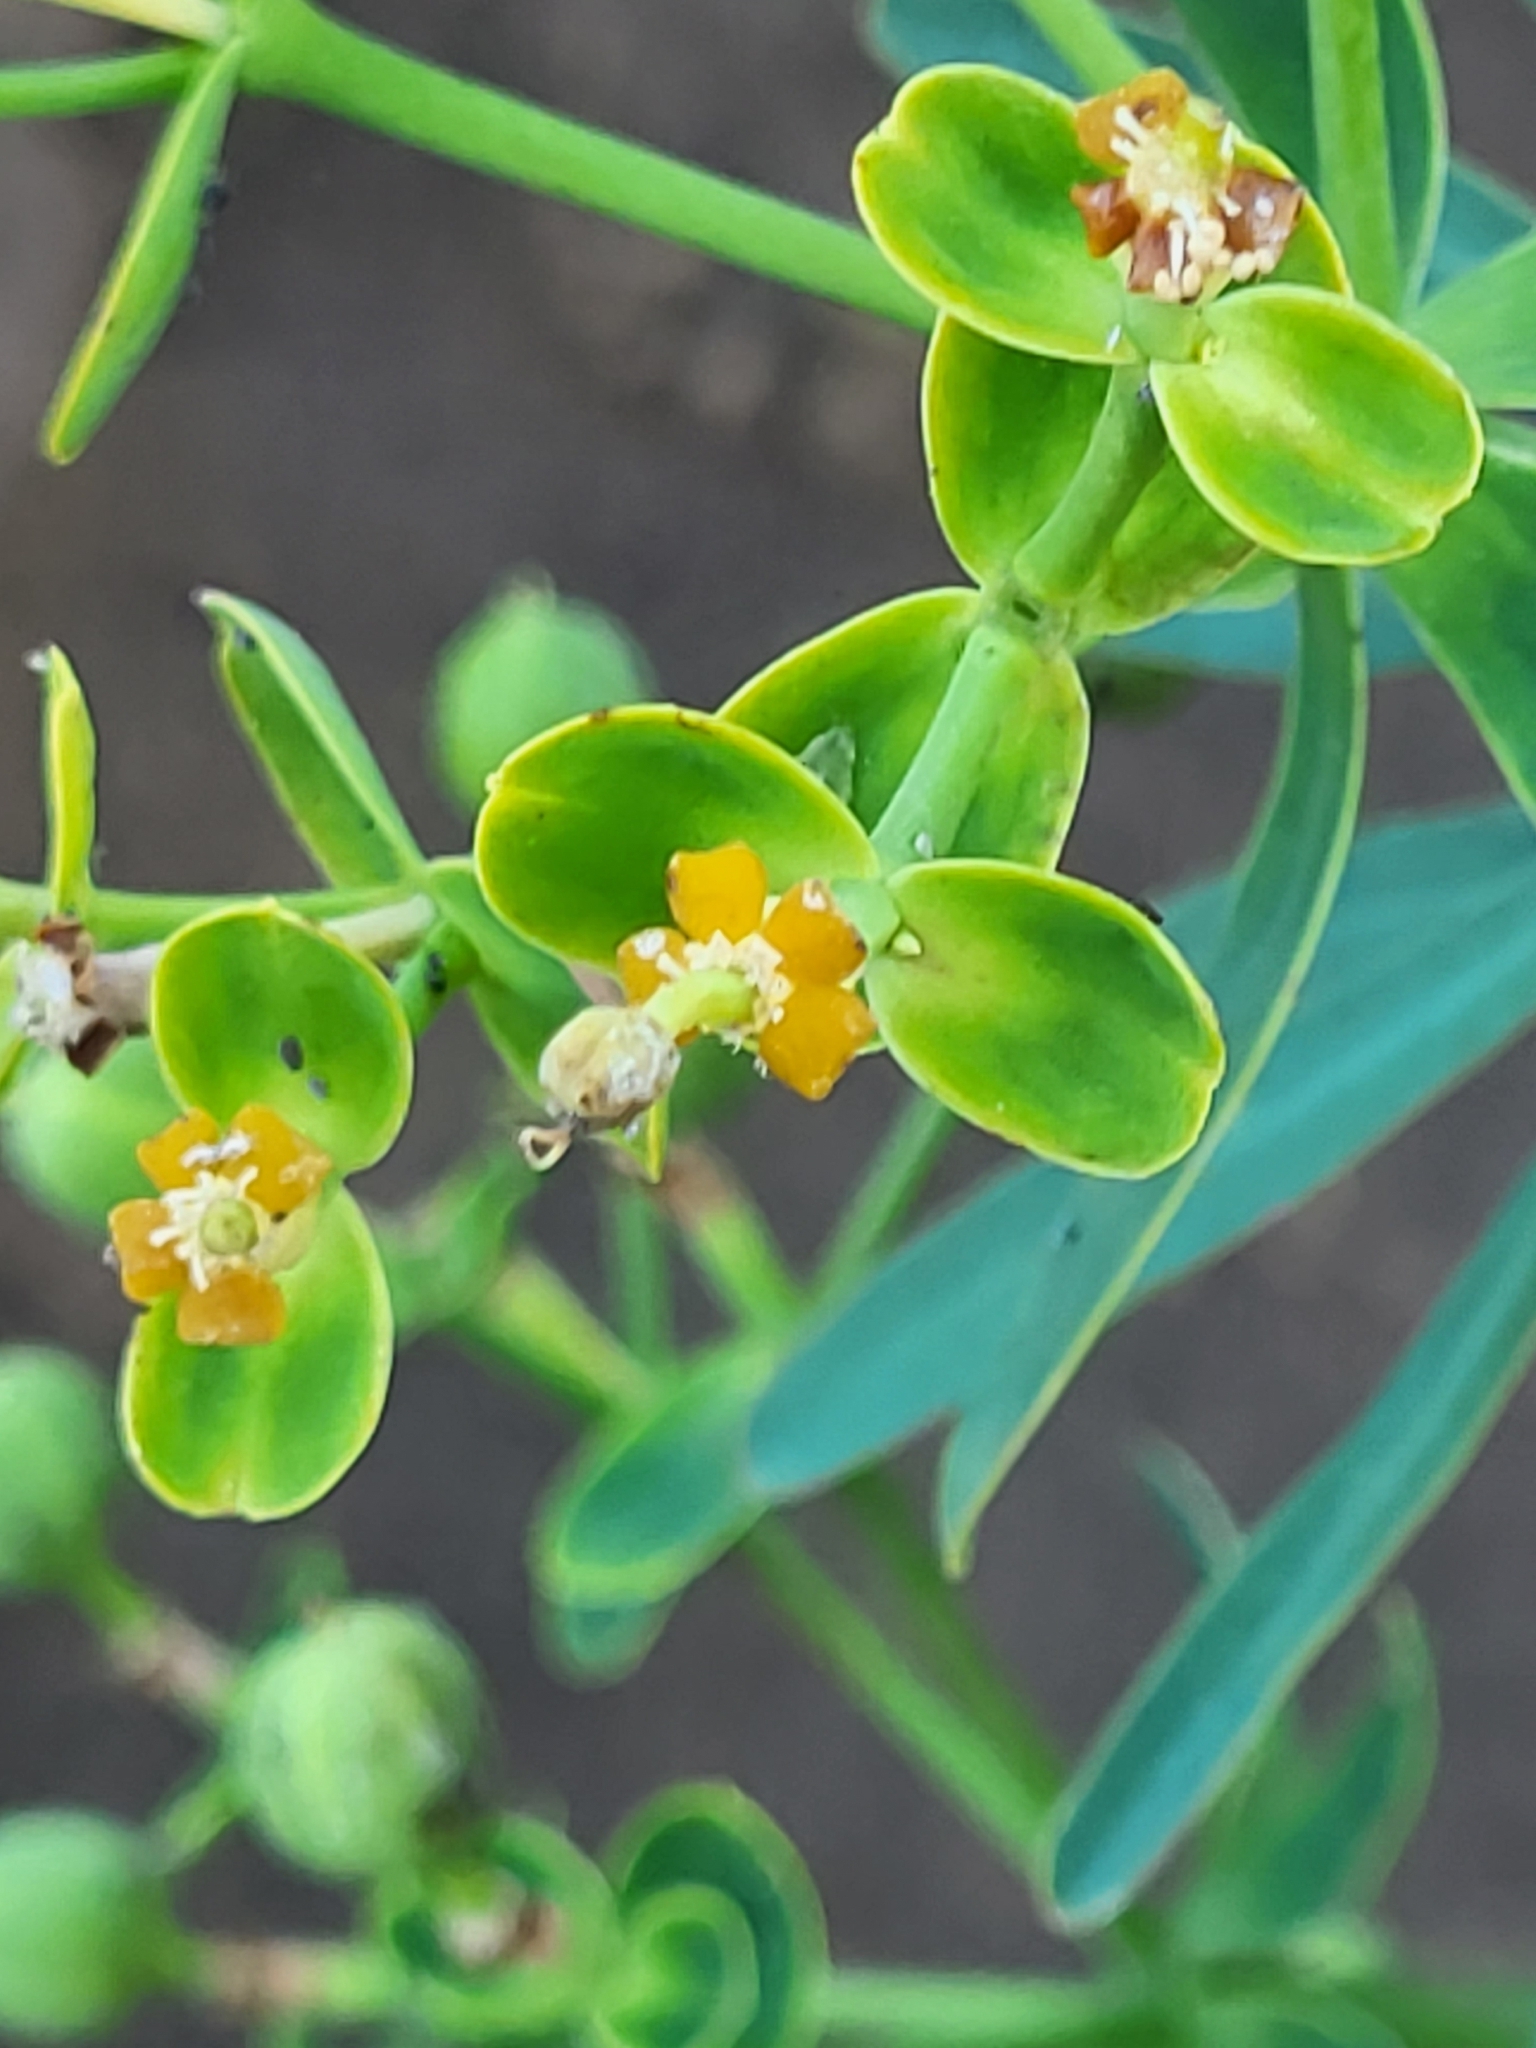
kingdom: Plantae
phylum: Tracheophyta
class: Magnoliopsida
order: Malpighiales
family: Euphorbiaceae
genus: Euphorbia
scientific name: Euphorbia tuckeyana
